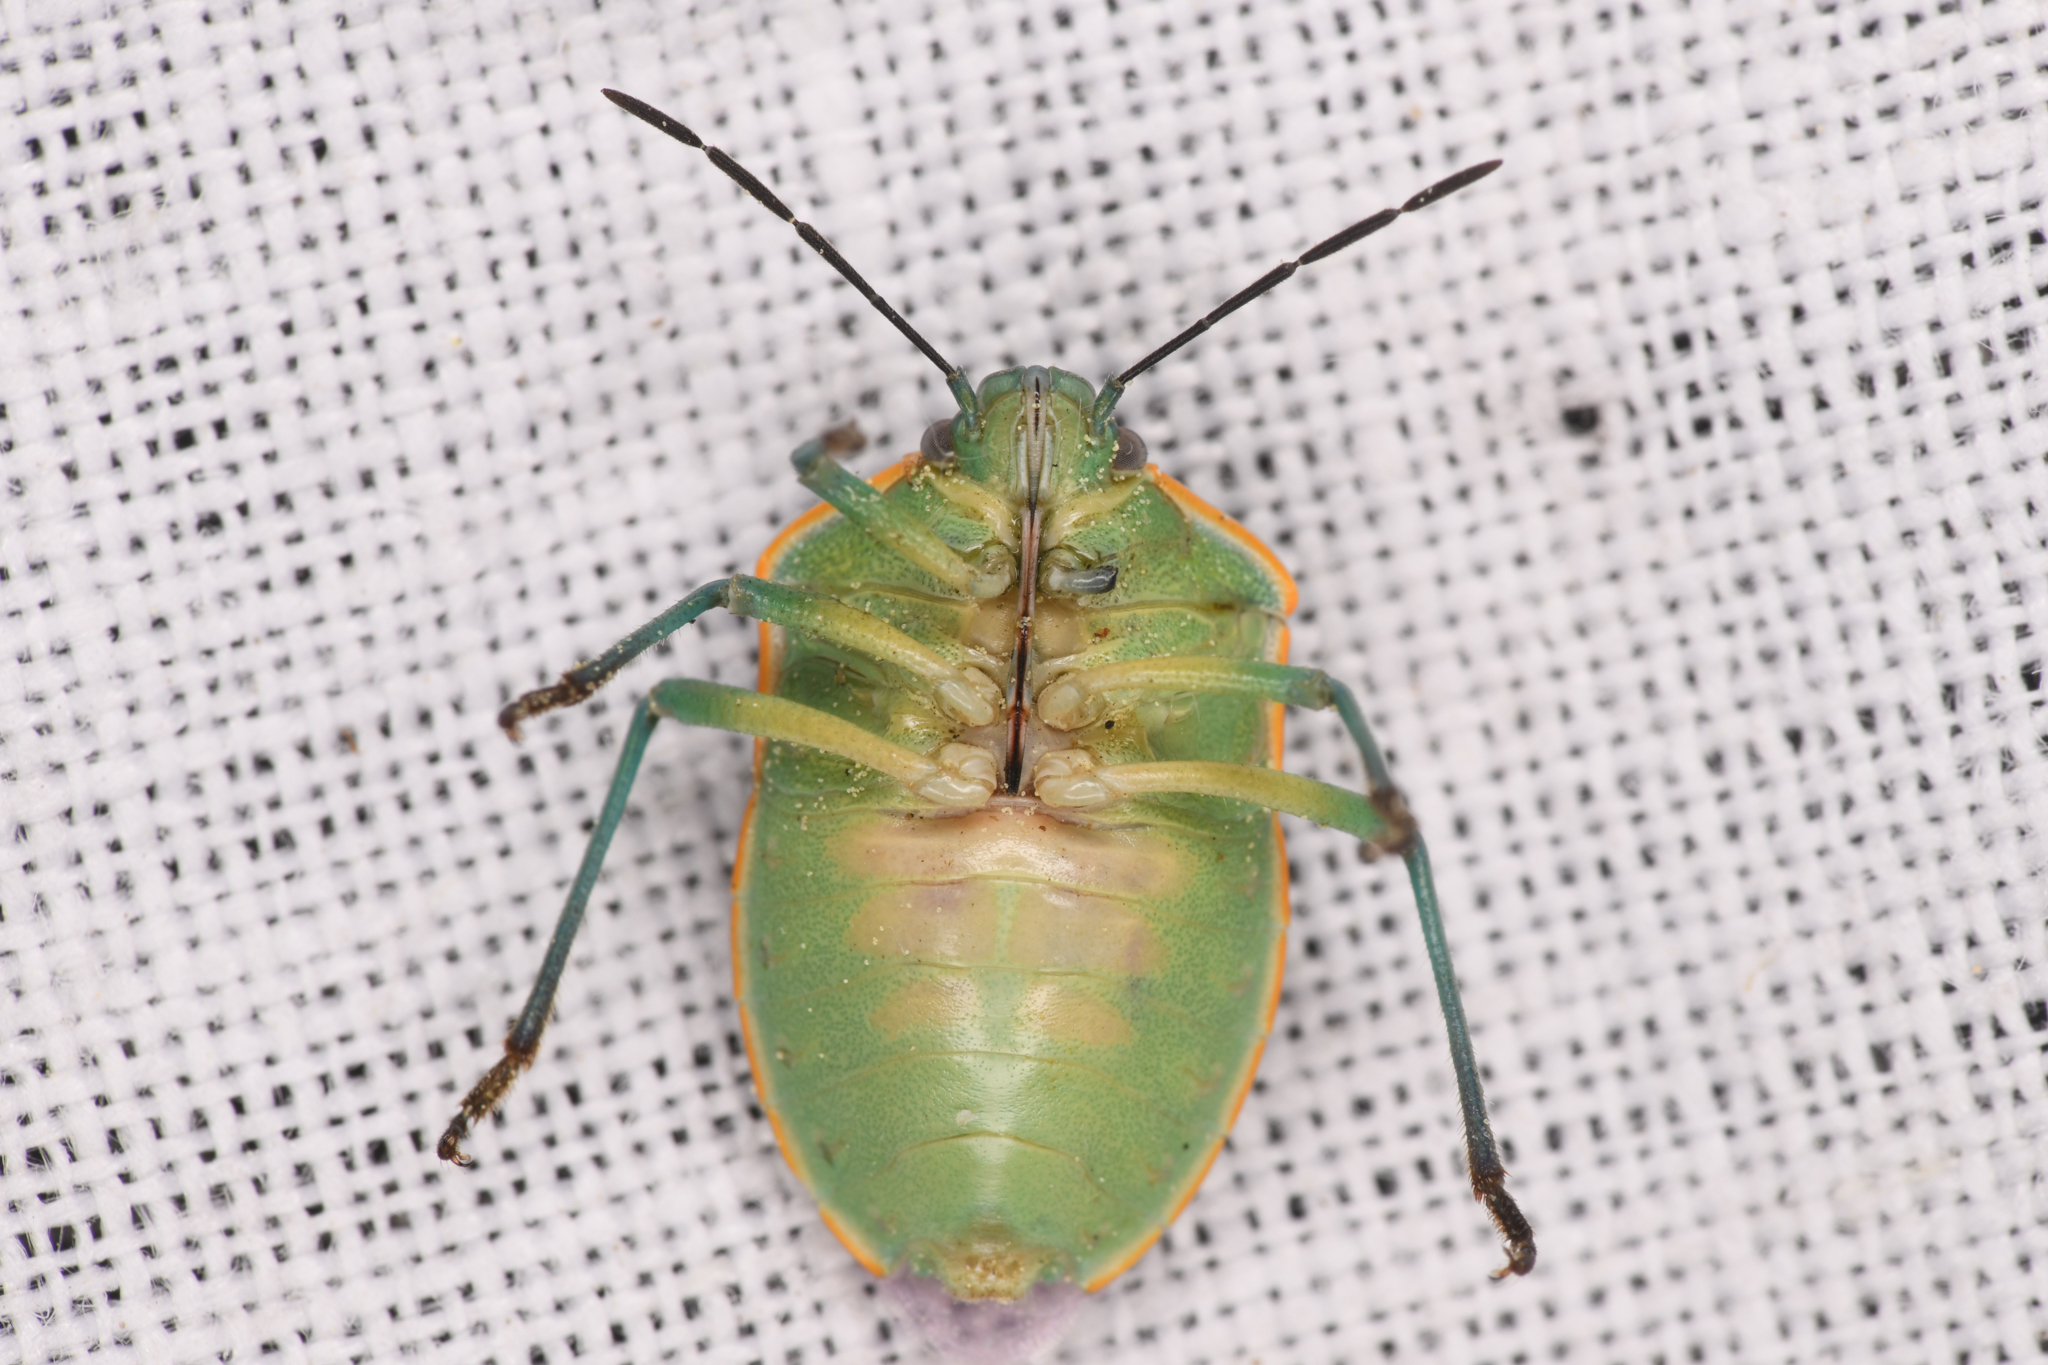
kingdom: Animalia
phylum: Arthropoda
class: Insecta
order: Hemiptera
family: Pentatomidae
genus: Chlorochroa
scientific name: Chlorochroa sayi
